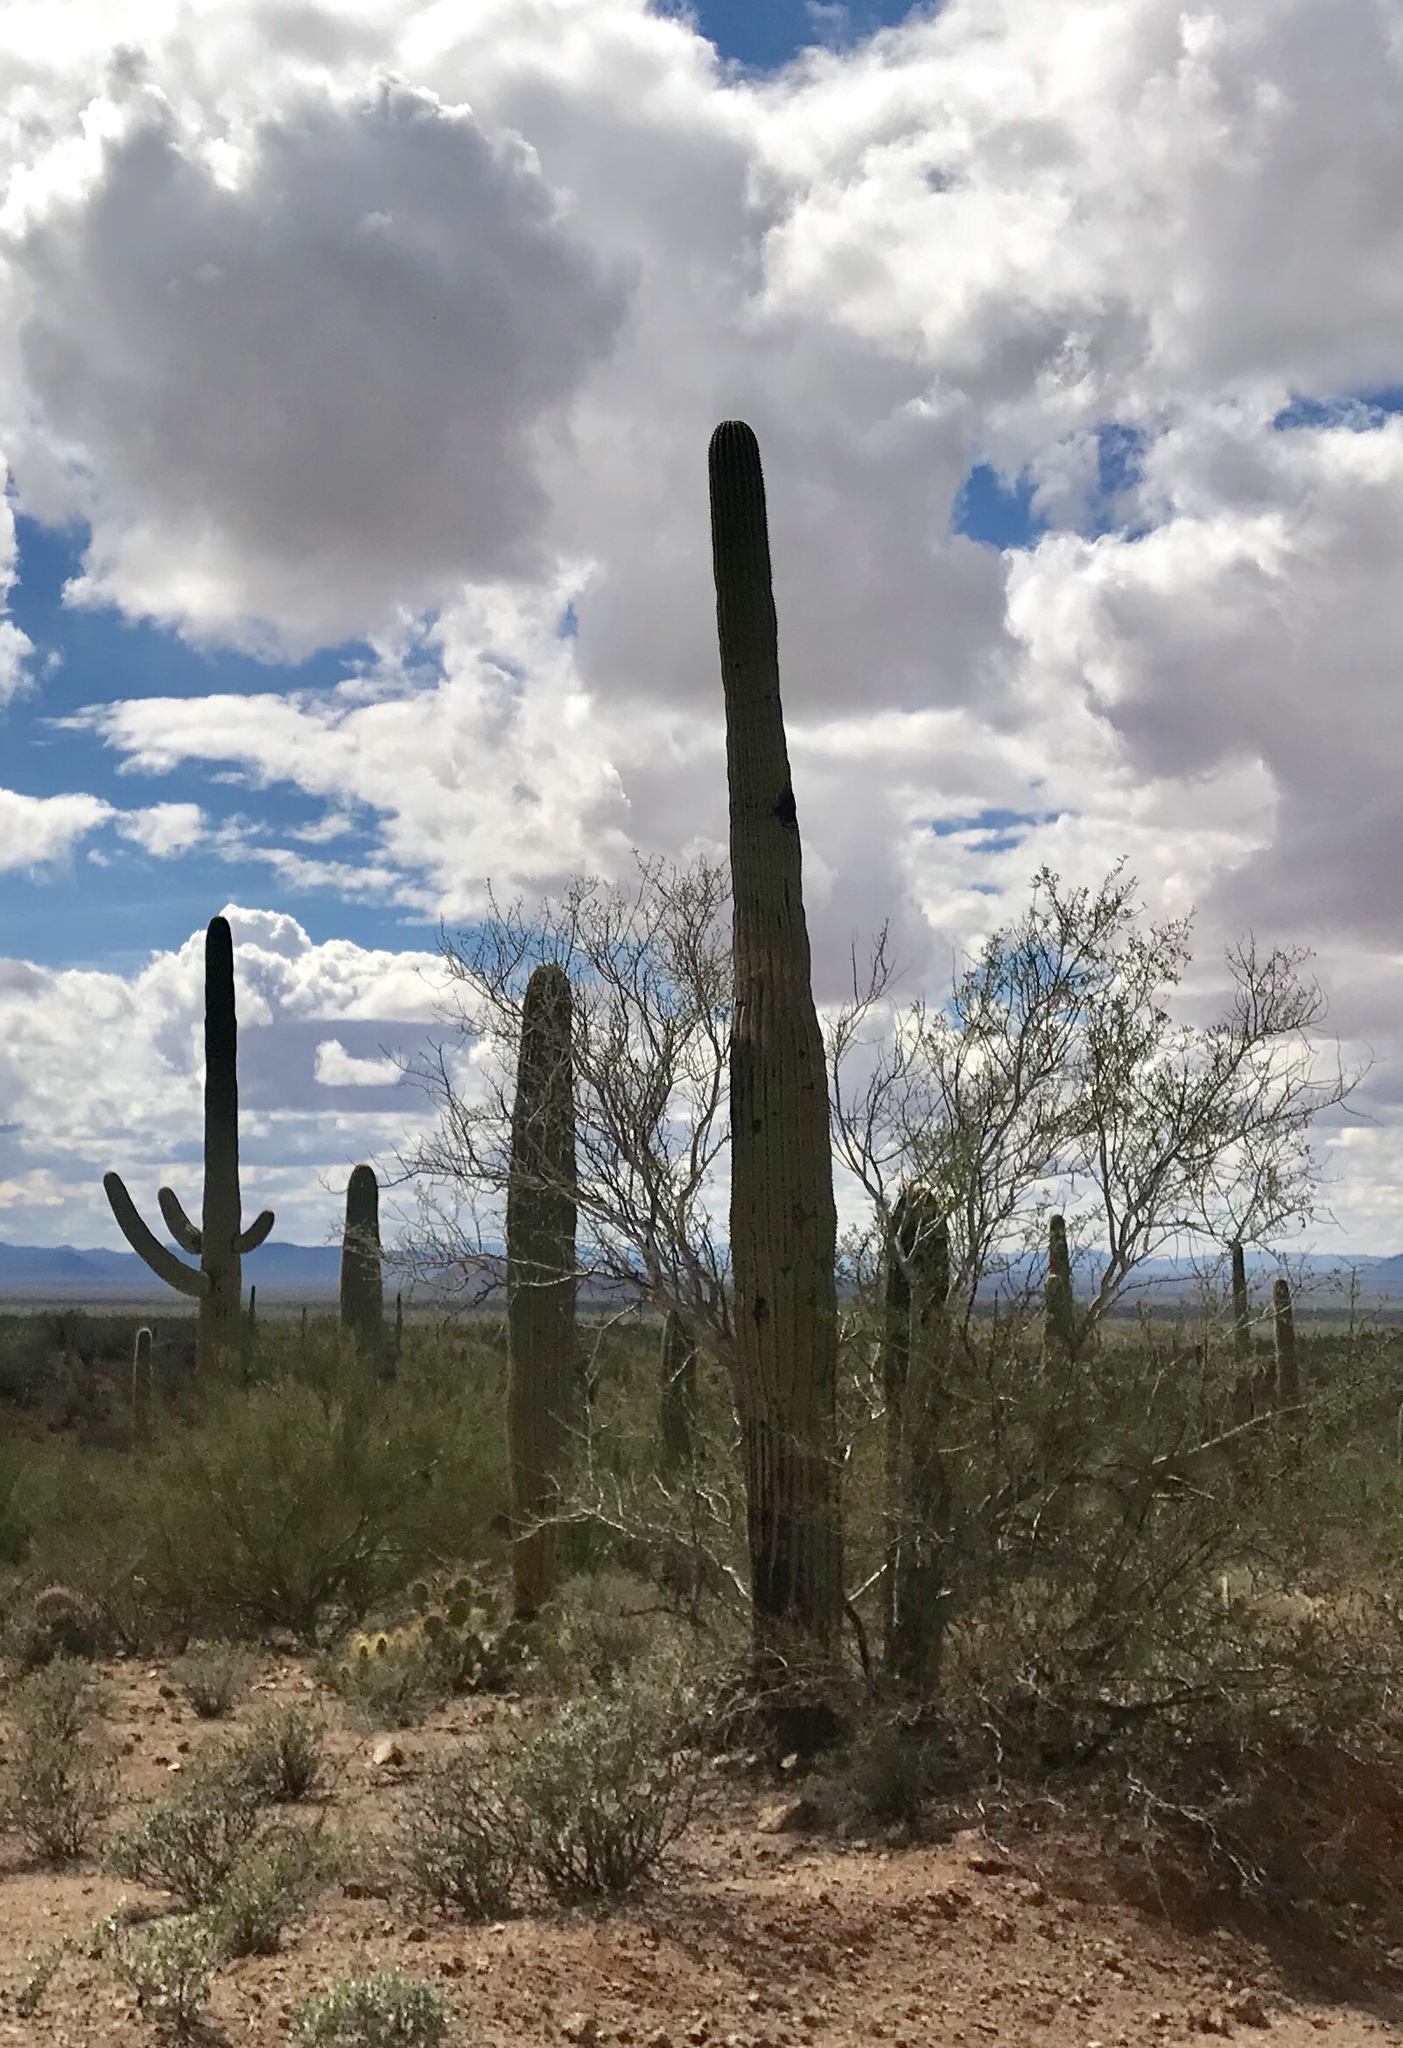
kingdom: Plantae
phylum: Tracheophyta
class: Magnoliopsida
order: Caryophyllales
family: Cactaceae
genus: Carnegiea
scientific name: Carnegiea gigantea
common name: Saguaro
